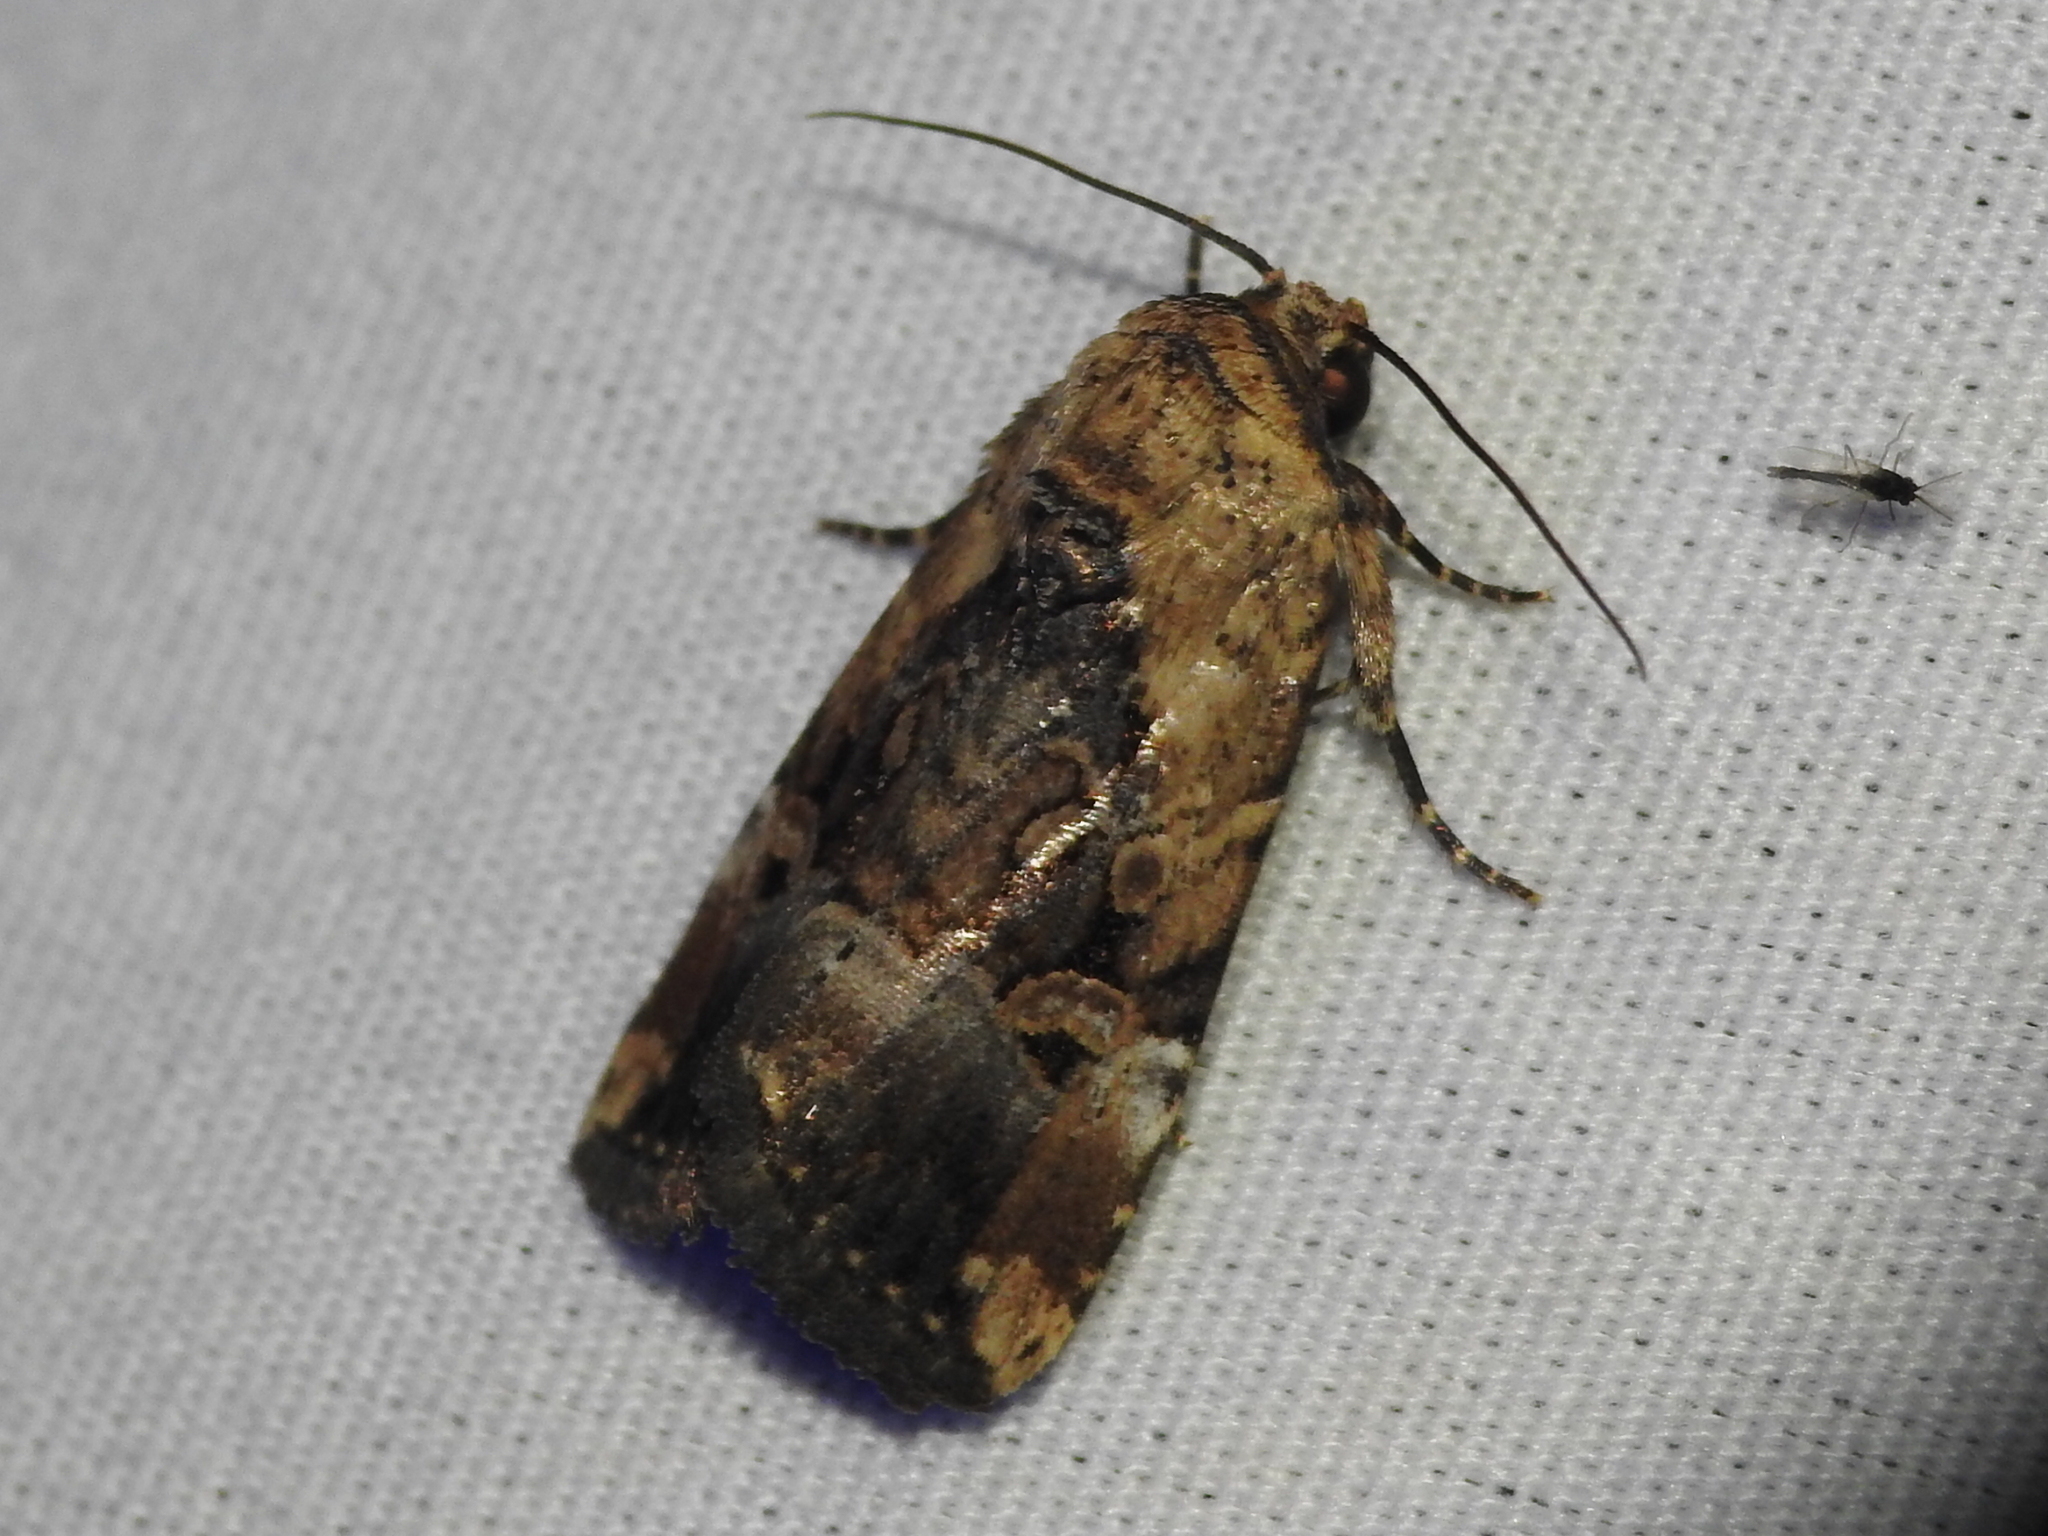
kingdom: Animalia
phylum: Arthropoda
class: Insecta
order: Lepidoptera
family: Noctuidae
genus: Elaphria
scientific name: Elaphria chalcedonia
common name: Chalcedony midget
